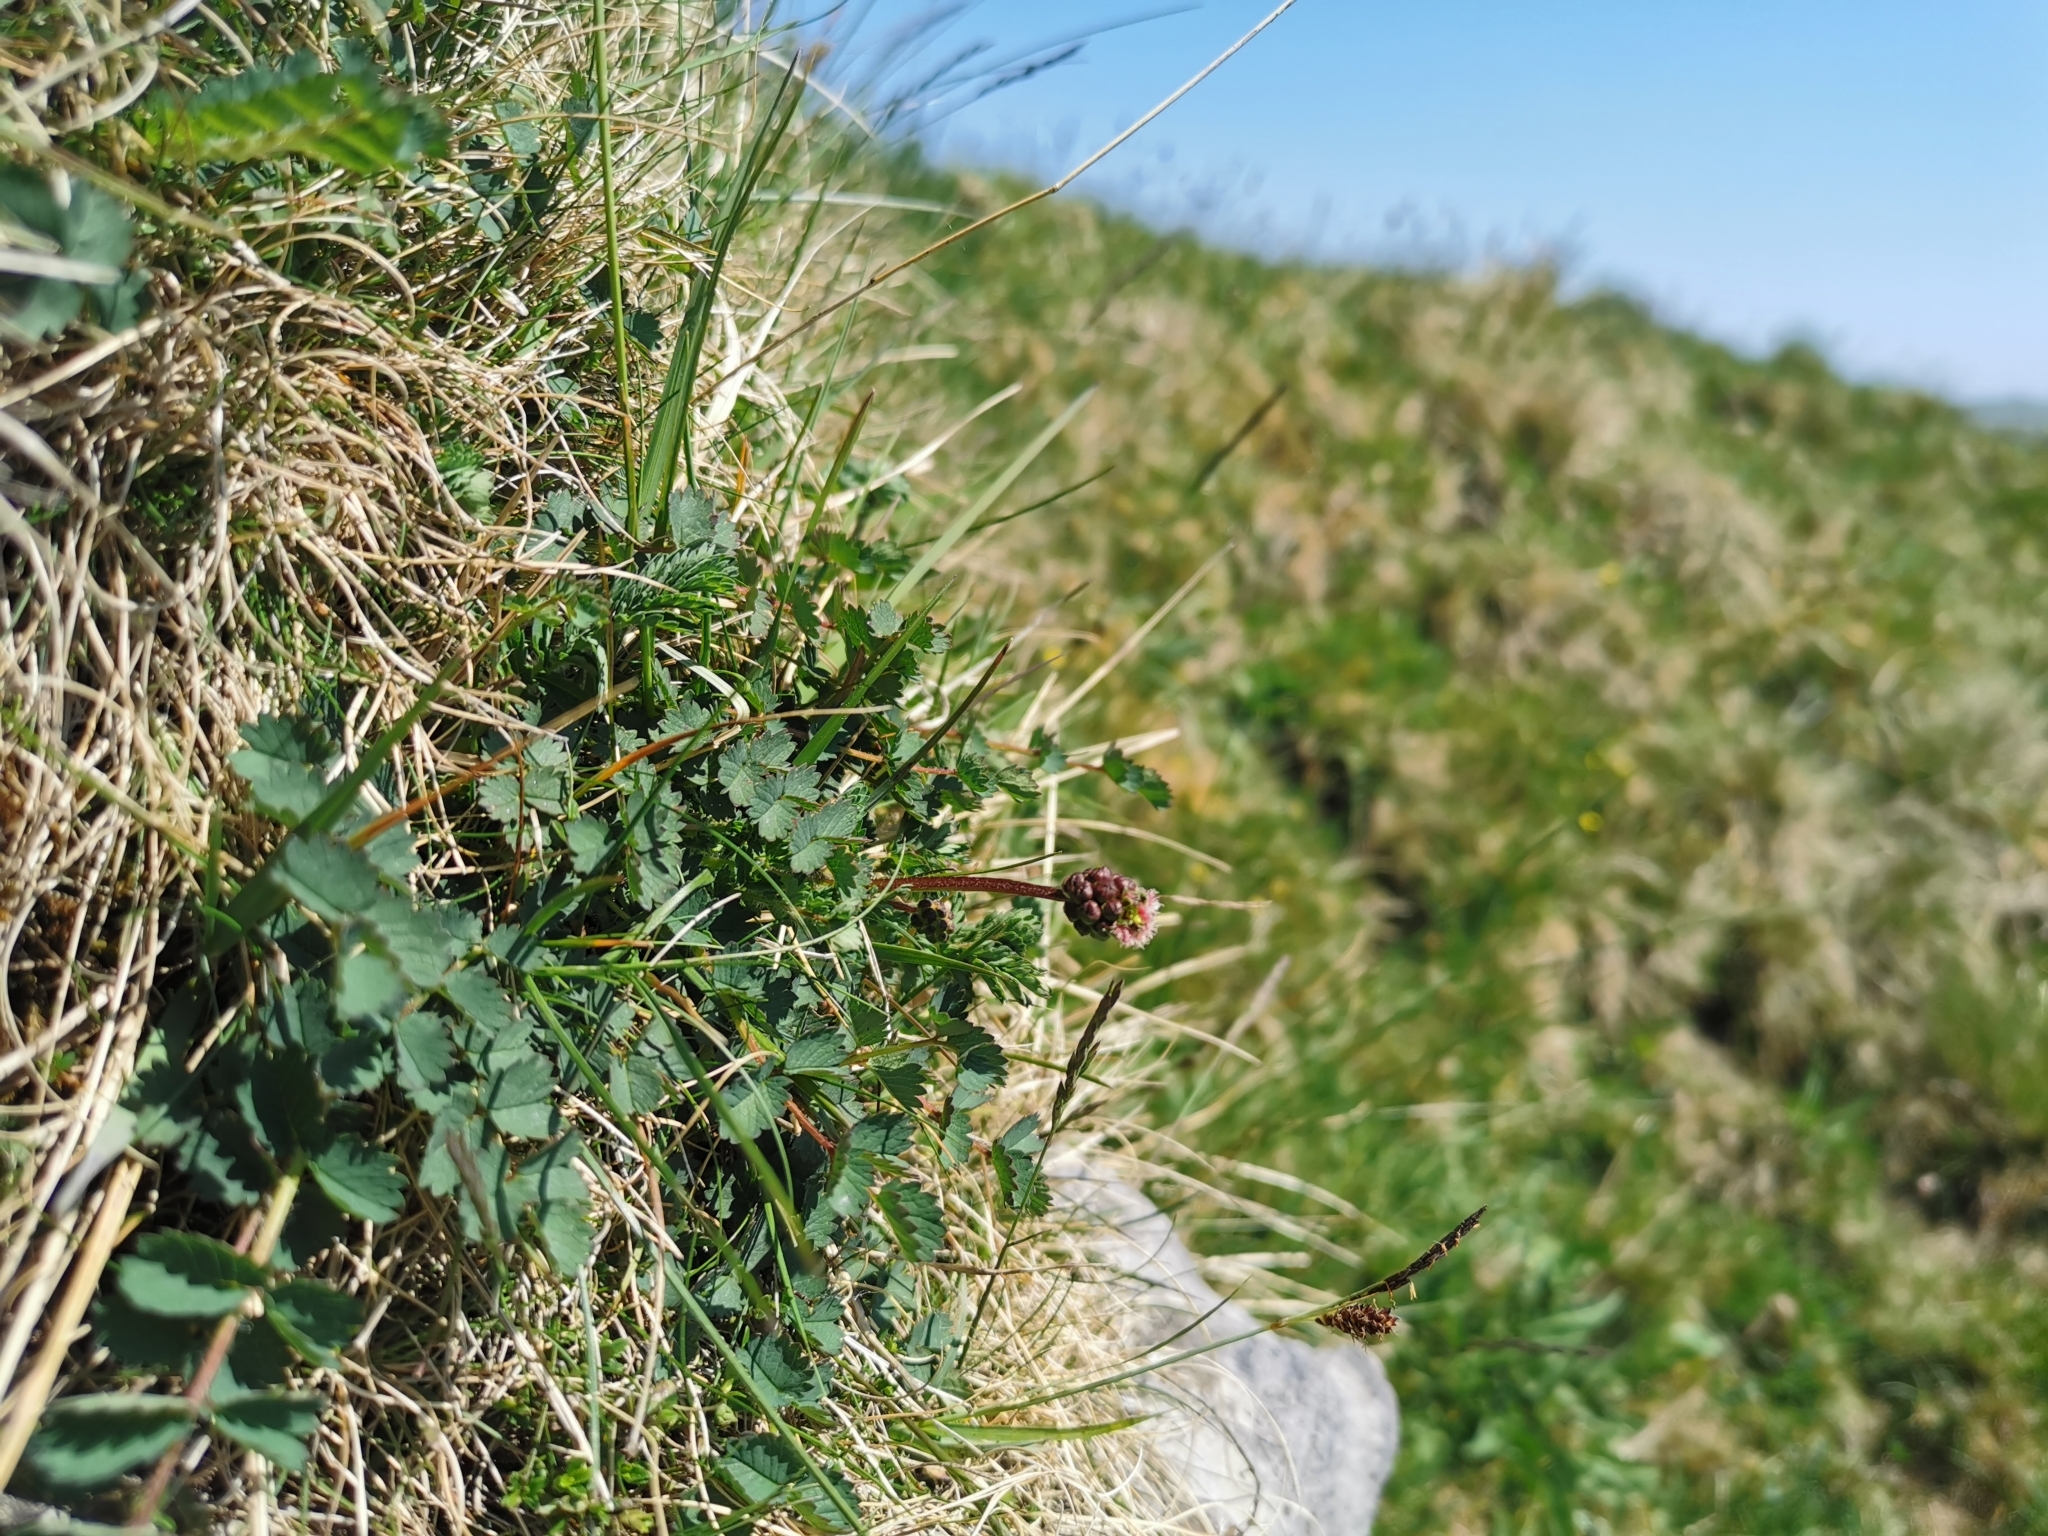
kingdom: Plantae
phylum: Tracheophyta
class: Magnoliopsida
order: Rosales
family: Rosaceae
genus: Poterium
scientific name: Poterium sanguisorba
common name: Salad burnet
